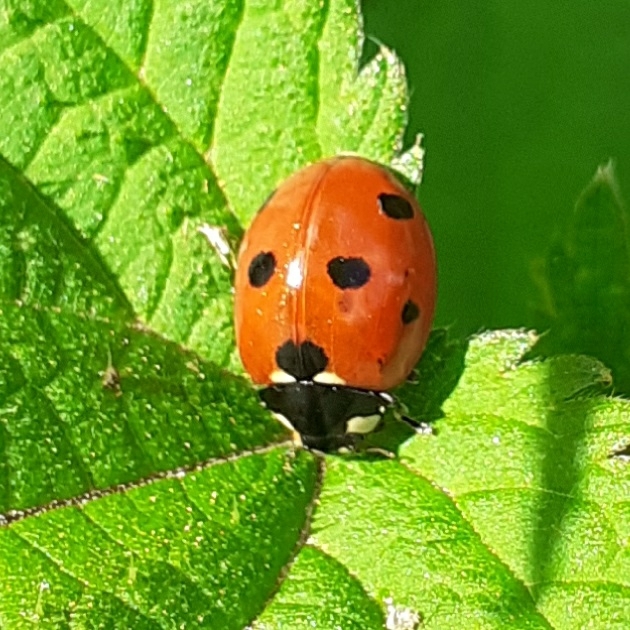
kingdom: Animalia
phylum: Arthropoda
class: Insecta
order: Coleoptera
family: Coccinellidae
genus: Coccinella
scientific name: Coccinella septempunctata
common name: Sevenspotted lady beetle
